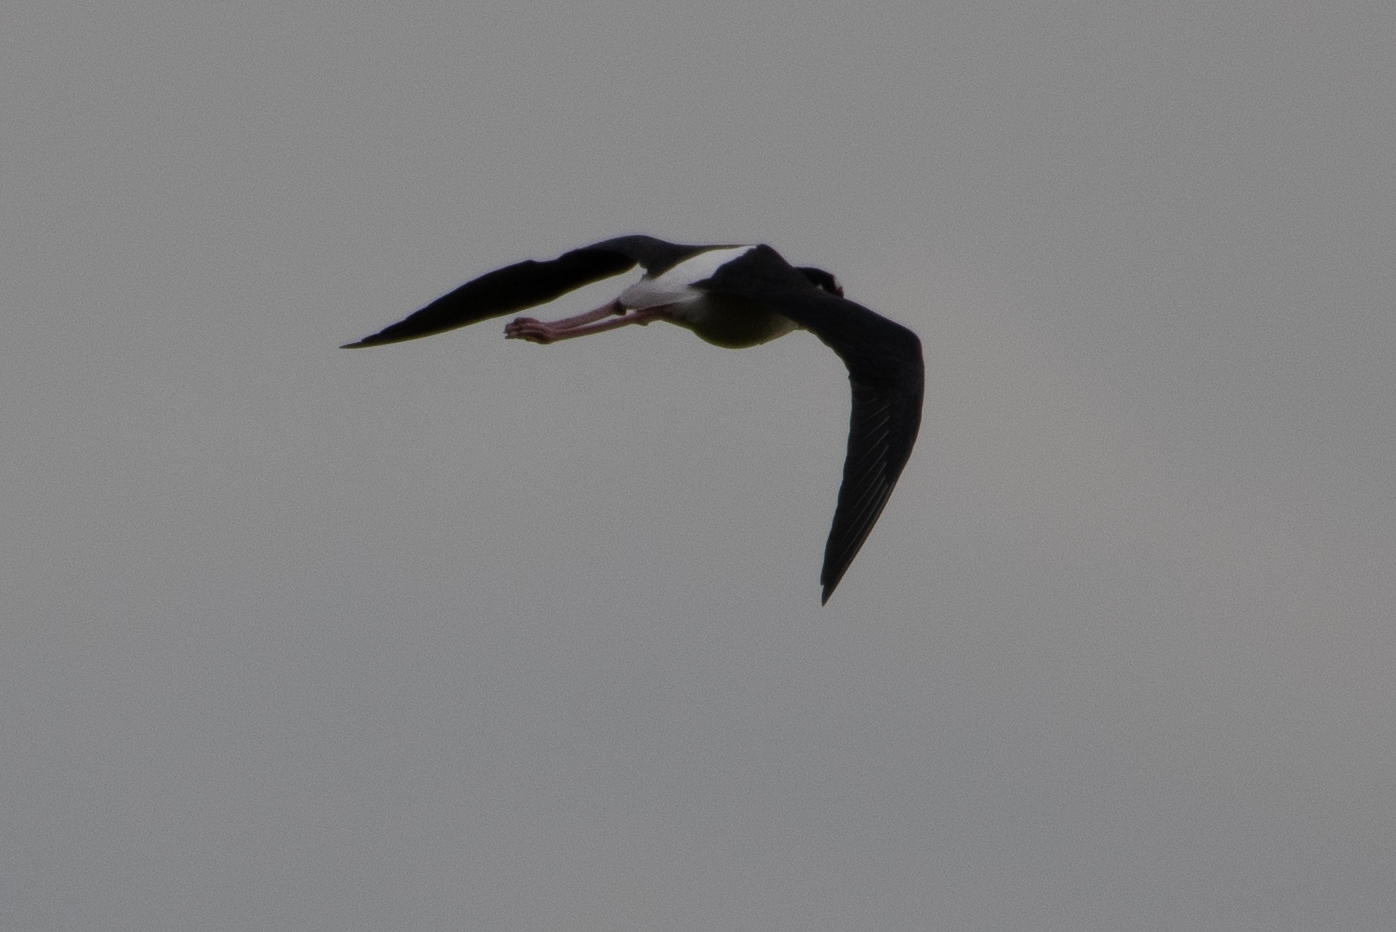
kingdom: Animalia
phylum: Chordata
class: Aves
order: Charadriiformes
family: Recurvirostridae
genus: Himantopus
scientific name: Himantopus mexicanus
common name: Black-necked stilt
